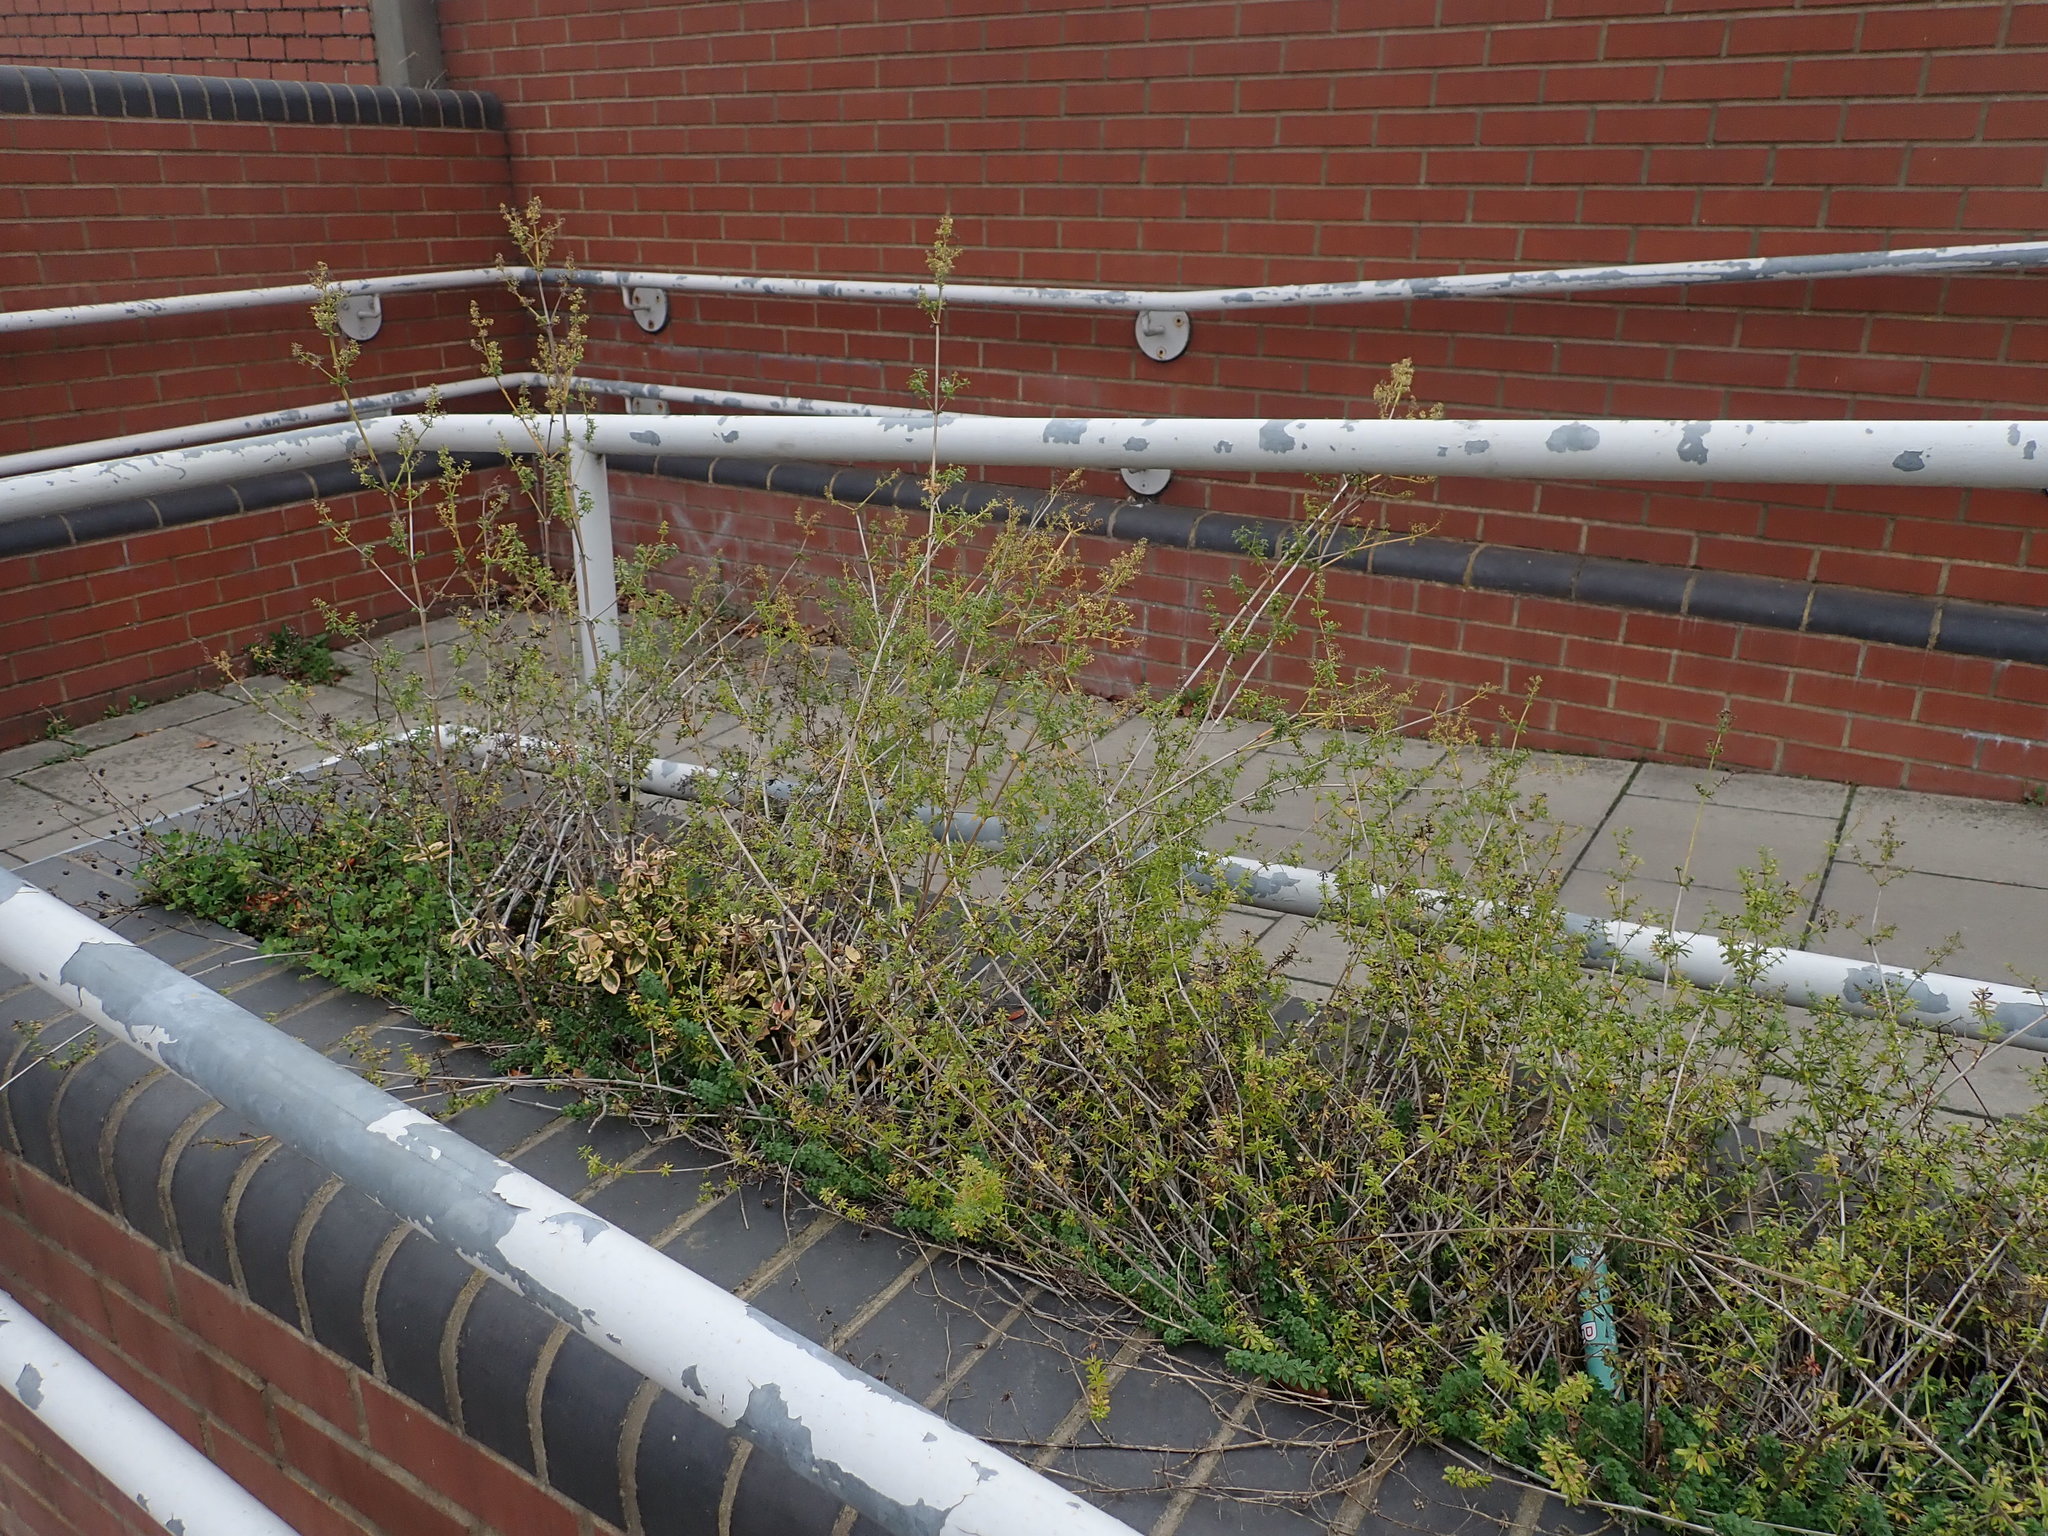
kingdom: Plantae
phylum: Tracheophyta
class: Magnoliopsida
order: Gentianales
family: Rubiaceae
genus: Galium
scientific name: Galium album
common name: White bedstraw
